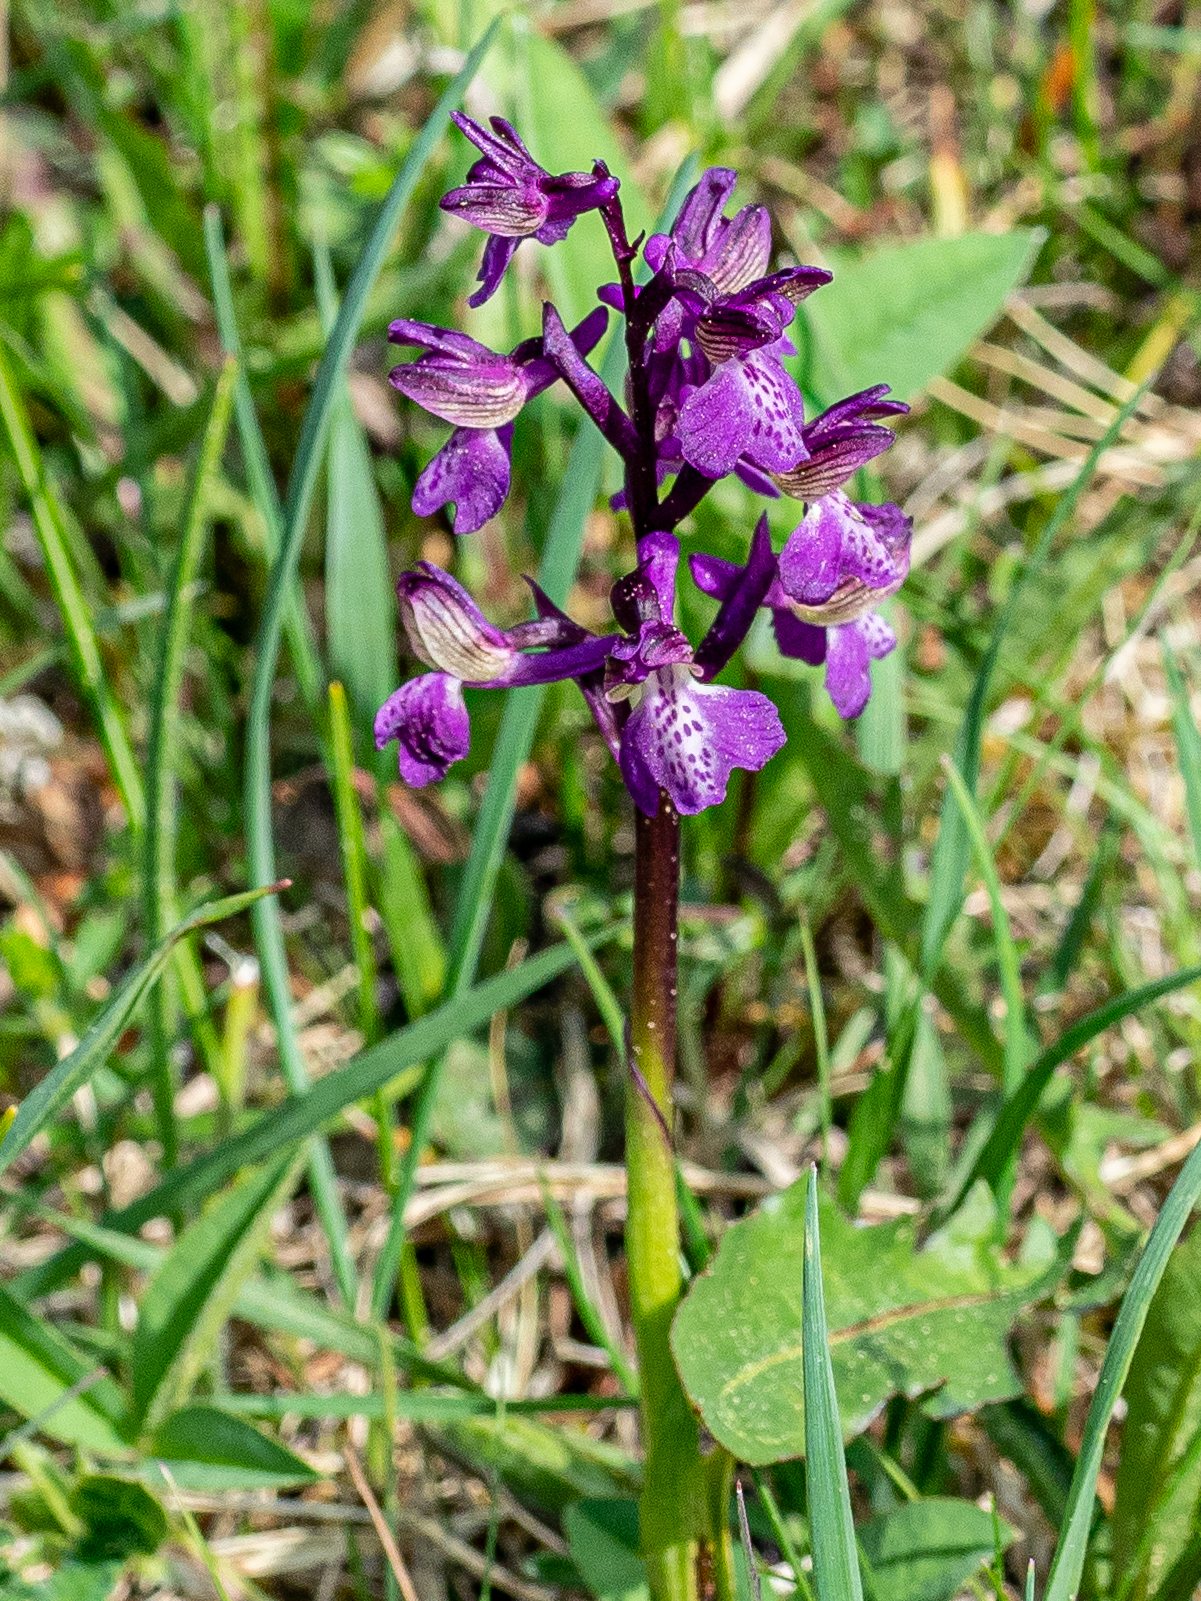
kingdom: Plantae
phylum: Tracheophyta
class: Liliopsida
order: Asparagales
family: Orchidaceae
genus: Anacamptis
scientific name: Anacamptis morio
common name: Green-winged orchid
